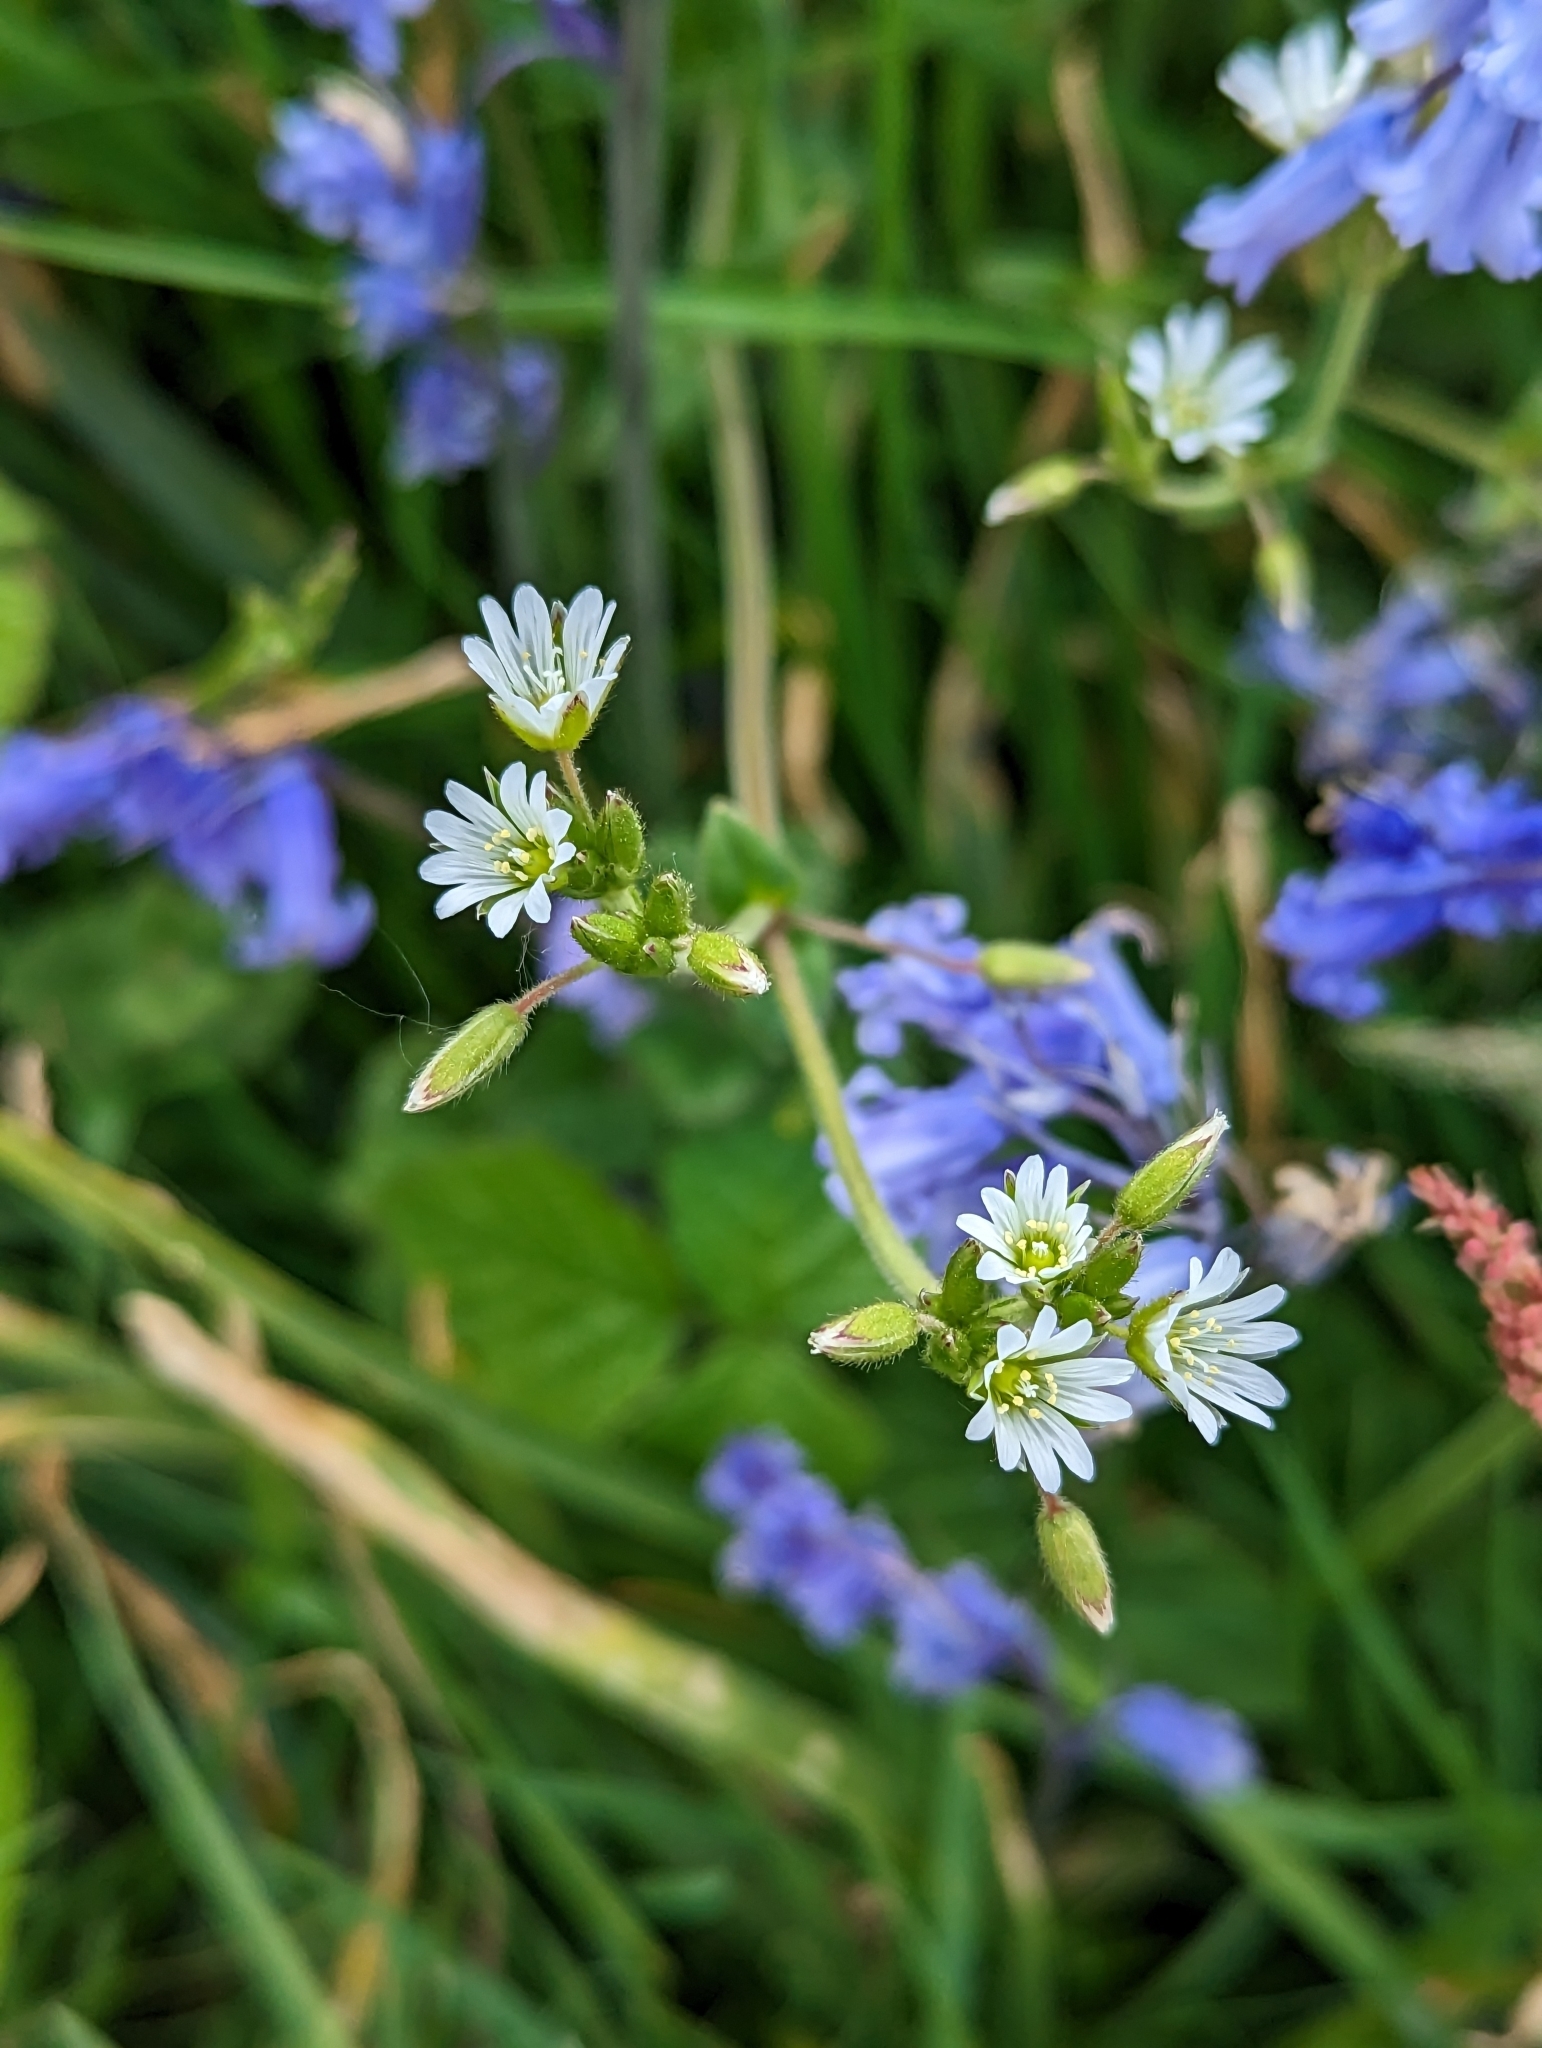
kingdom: Plantae
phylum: Tracheophyta
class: Magnoliopsida
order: Caryophyllales
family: Caryophyllaceae
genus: Cerastium
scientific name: Cerastium fontanum
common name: Common mouse-ear
